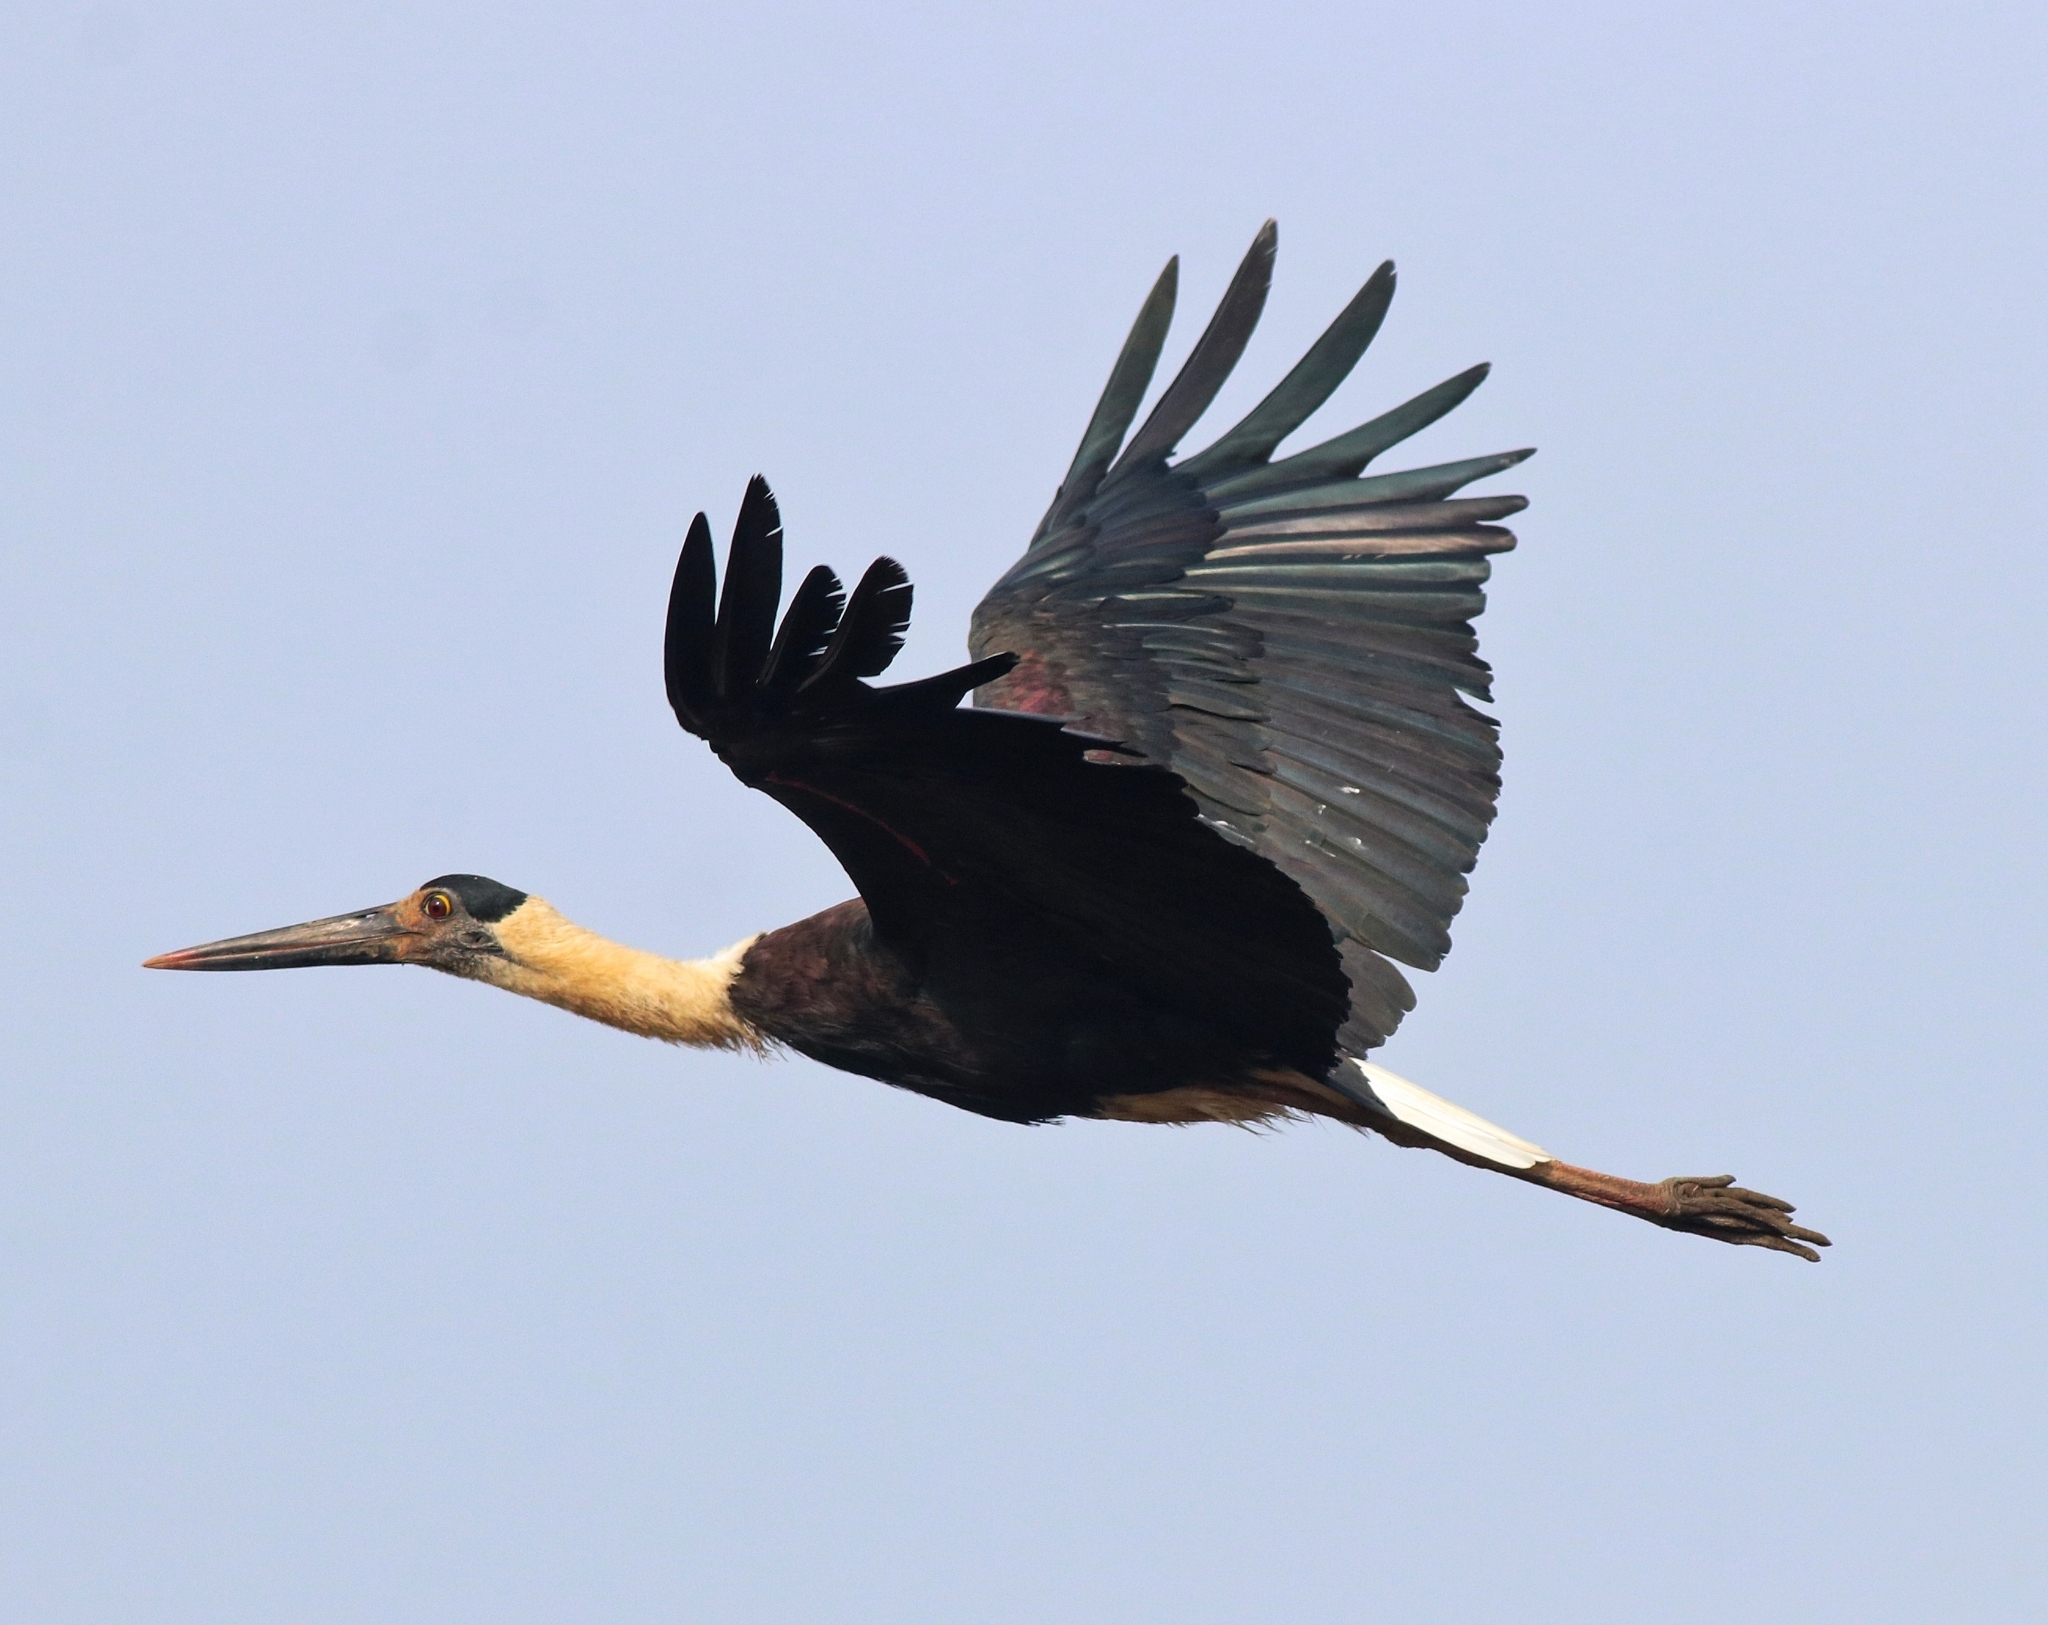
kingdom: Animalia
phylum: Chordata
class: Aves
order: Ciconiiformes
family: Ciconiidae
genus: Ciconia
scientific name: Ciconia episcopus
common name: Woolly-necked stork
